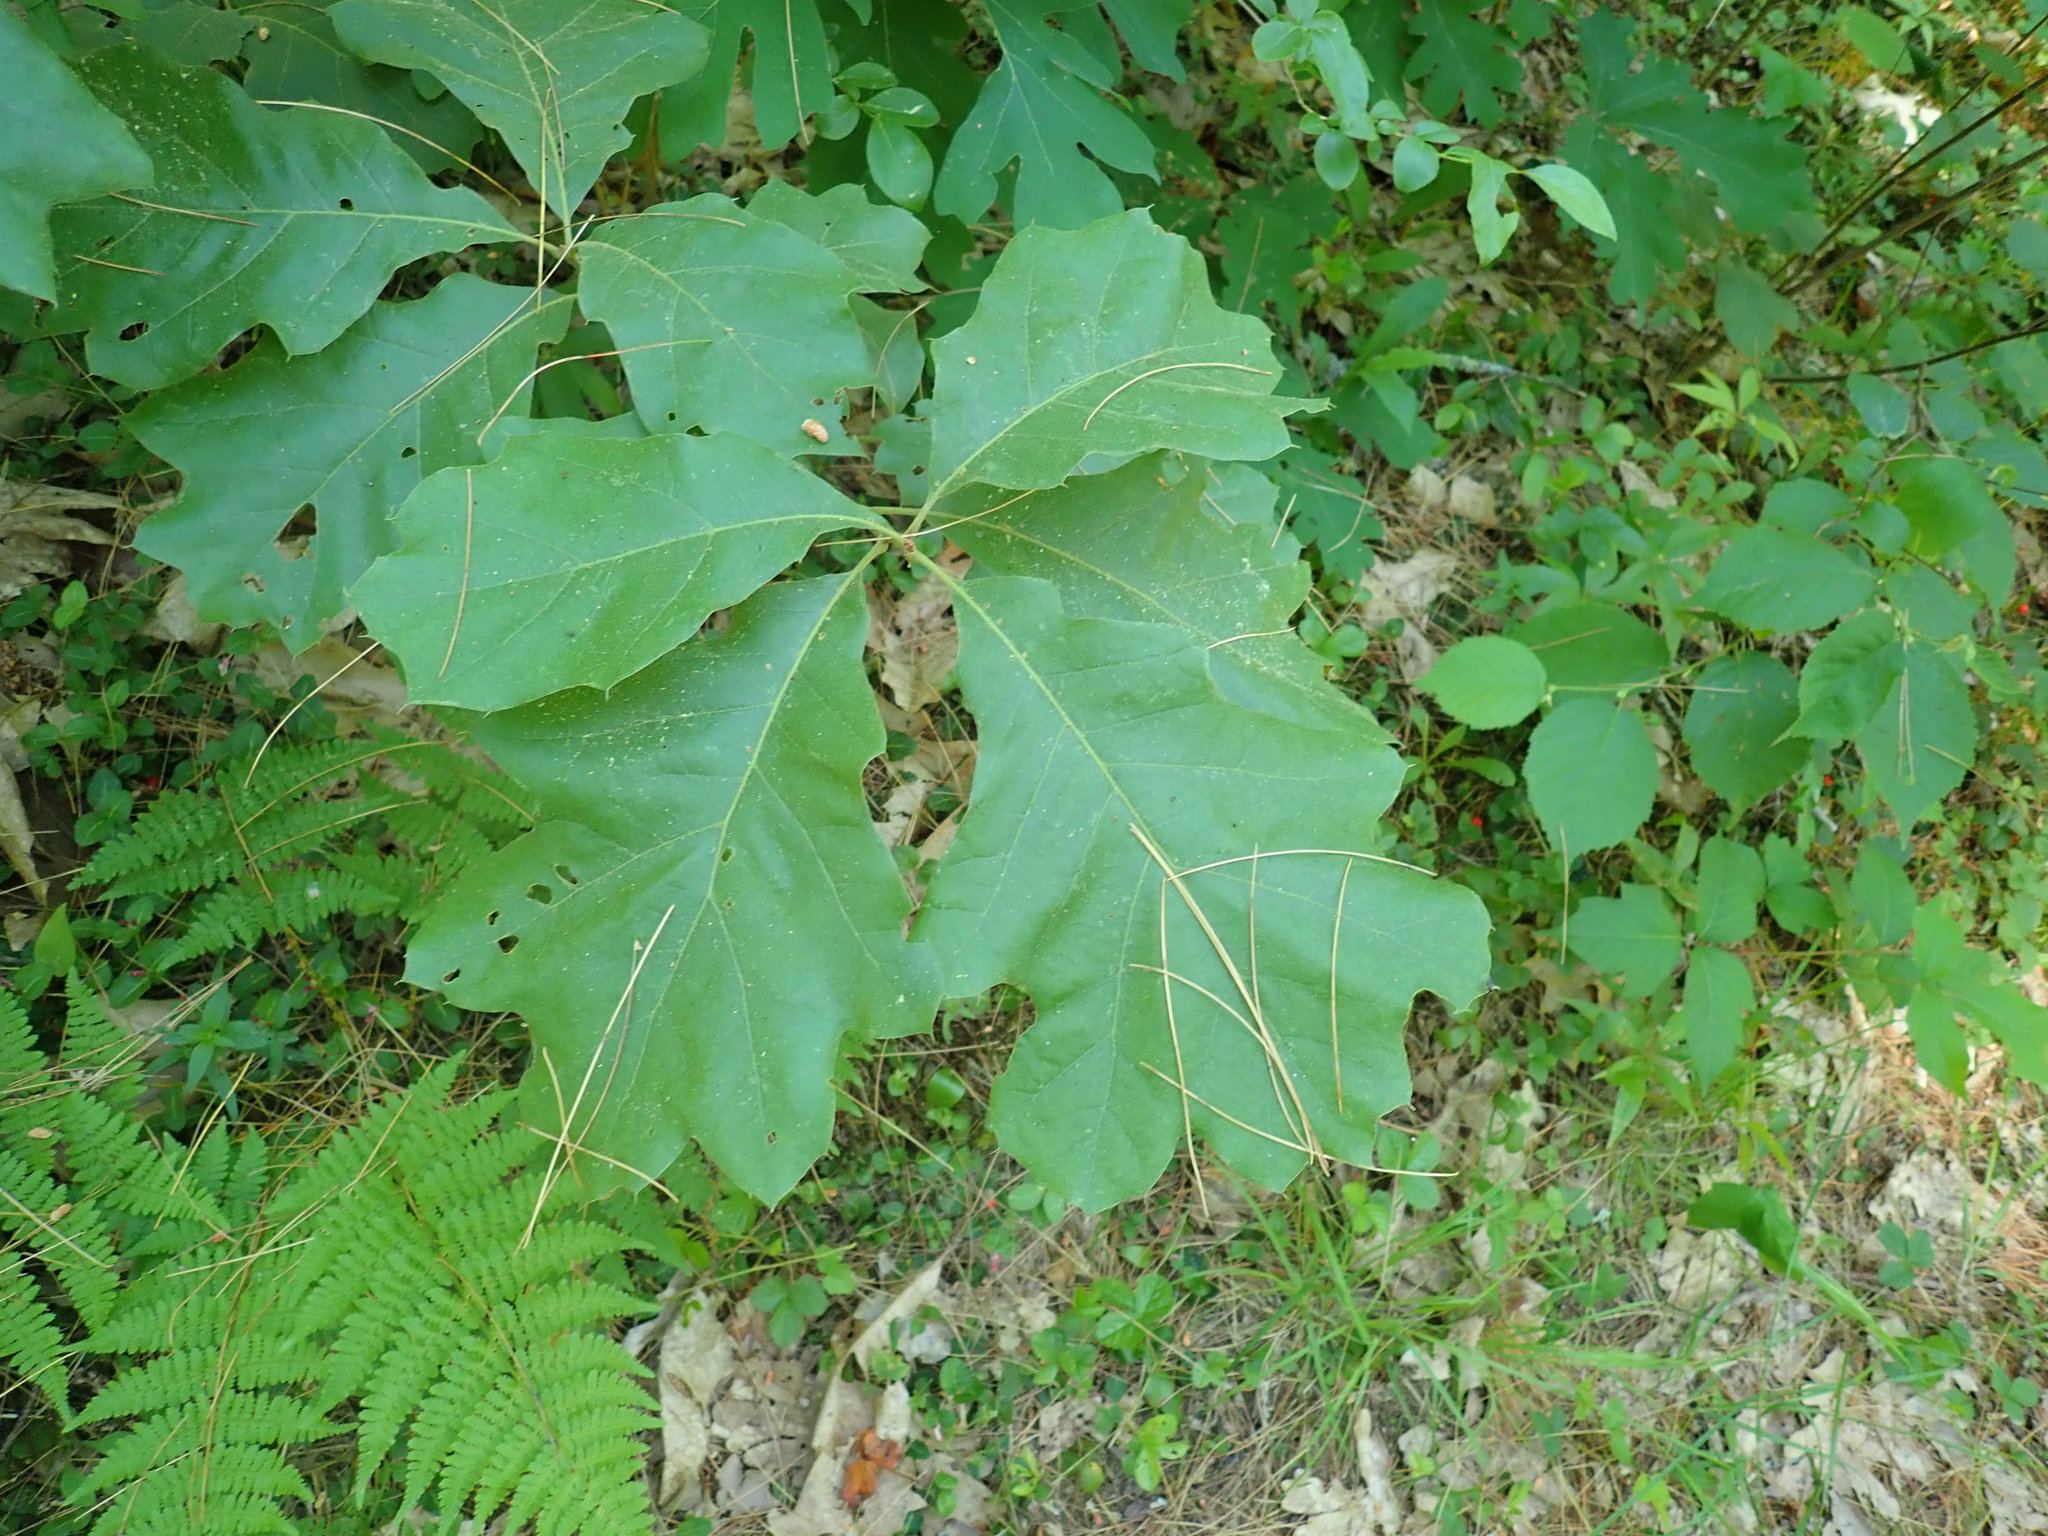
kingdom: Plantae
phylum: Tracheophyta
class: Magnoliopsida
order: Fagales
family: Fagaceae
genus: Quercus
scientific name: Quercus velutina
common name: Black oak
